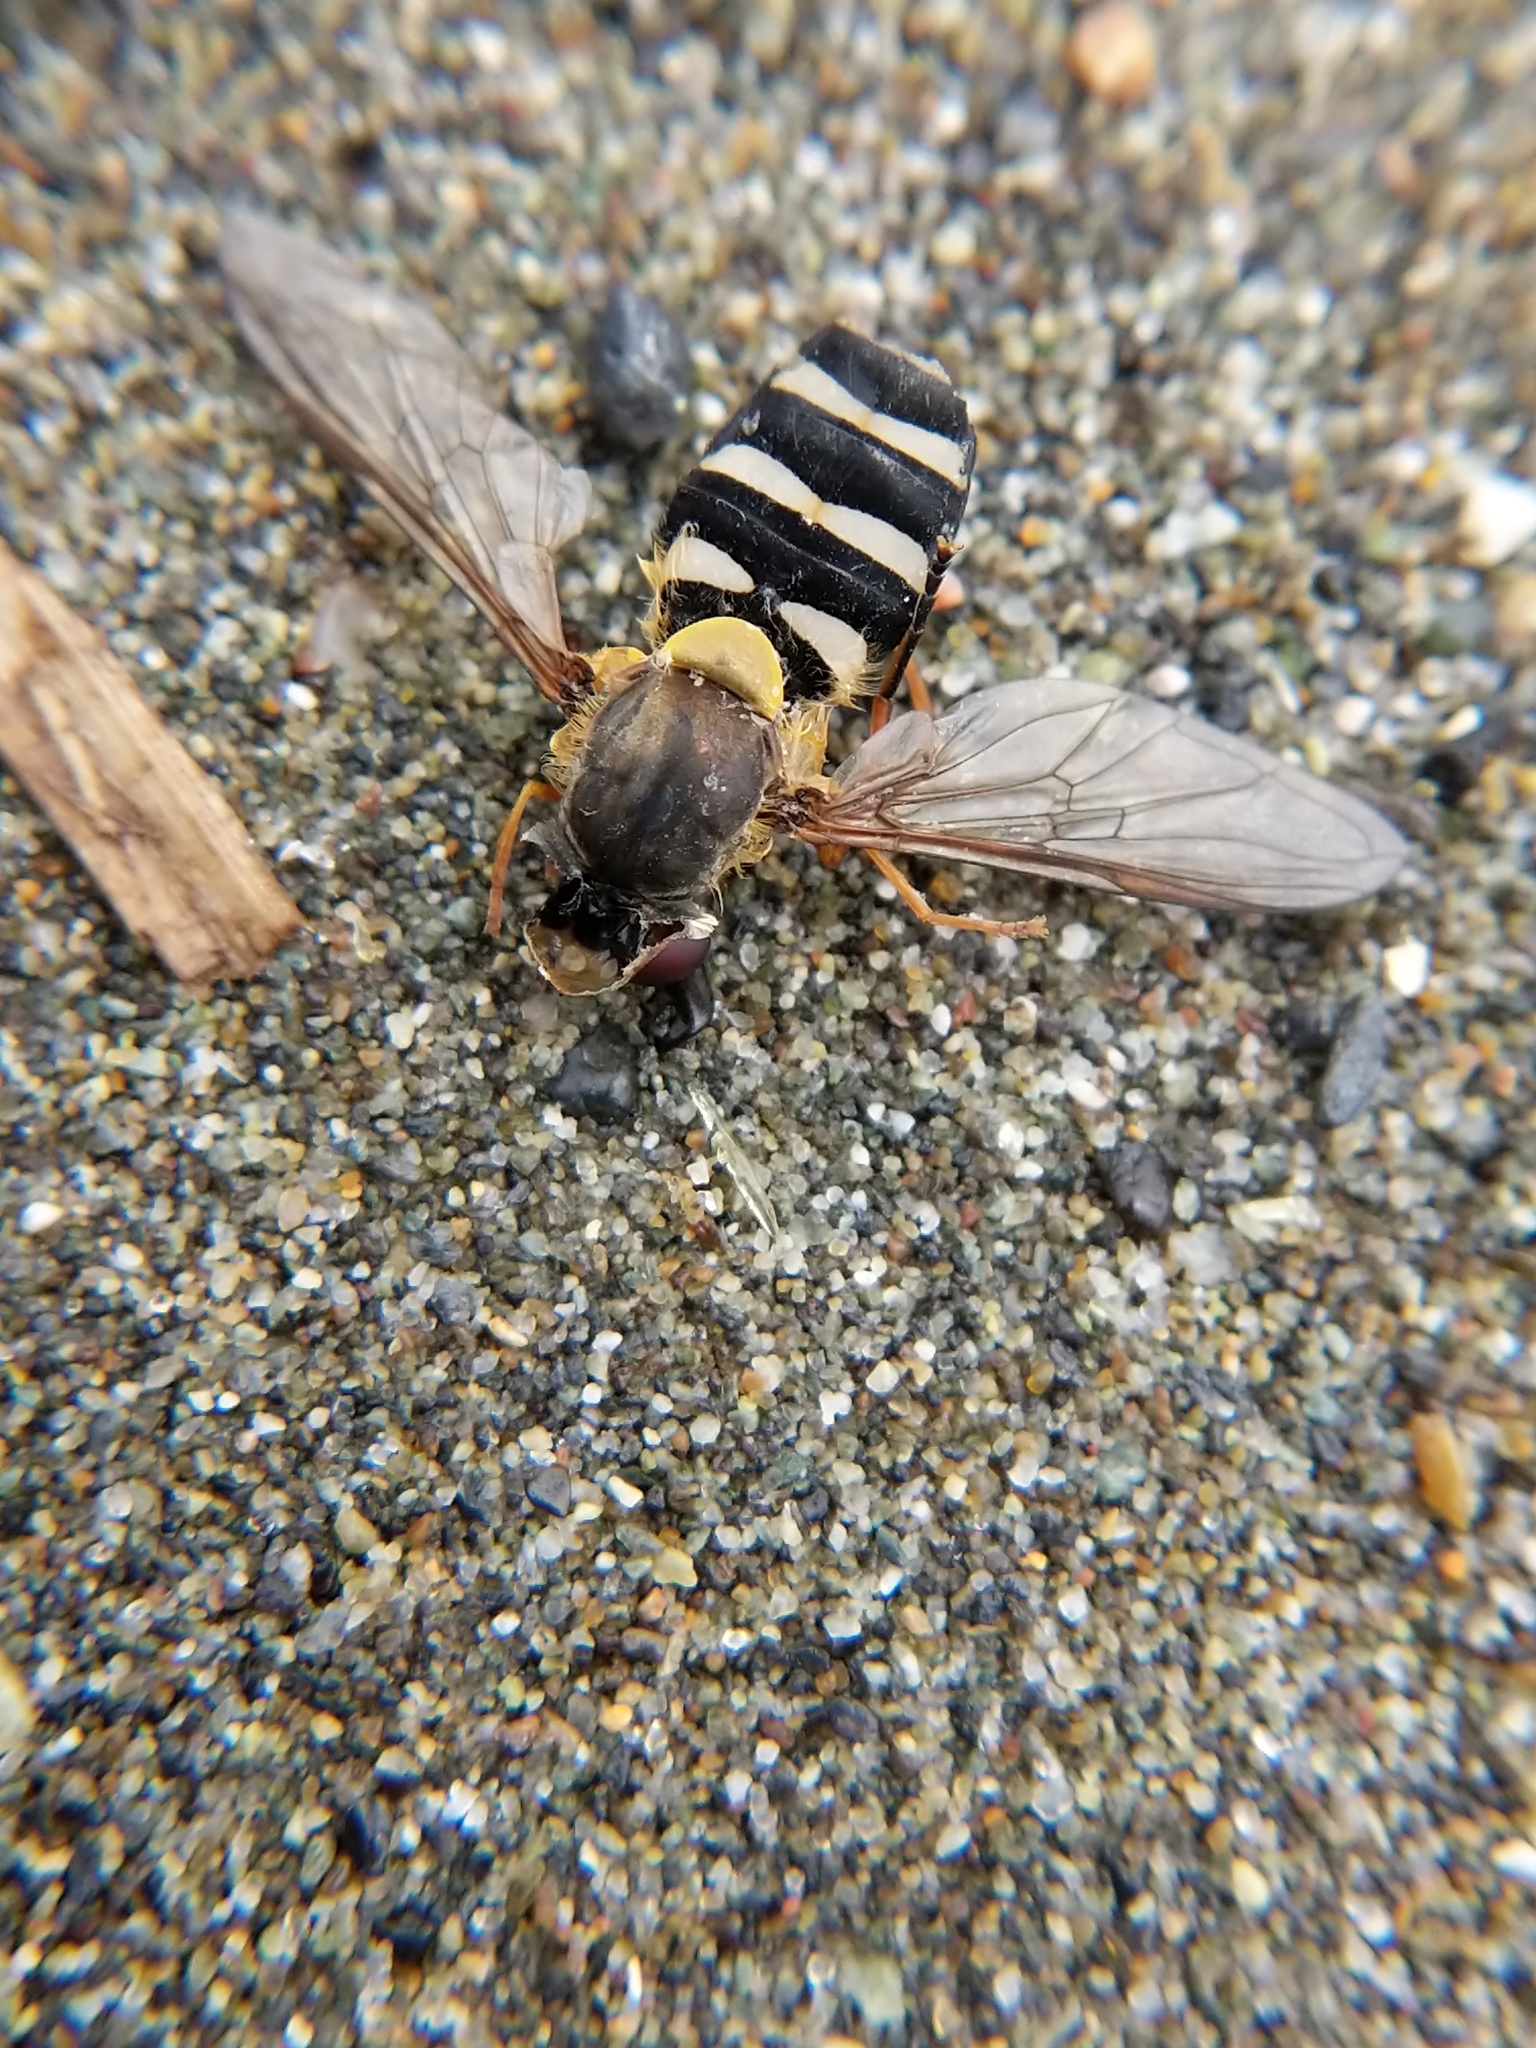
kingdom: Animalia
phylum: Arthropoda
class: Insecta
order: Diptera
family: Syrphidae
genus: Syrphus
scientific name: Syrphus opinator
